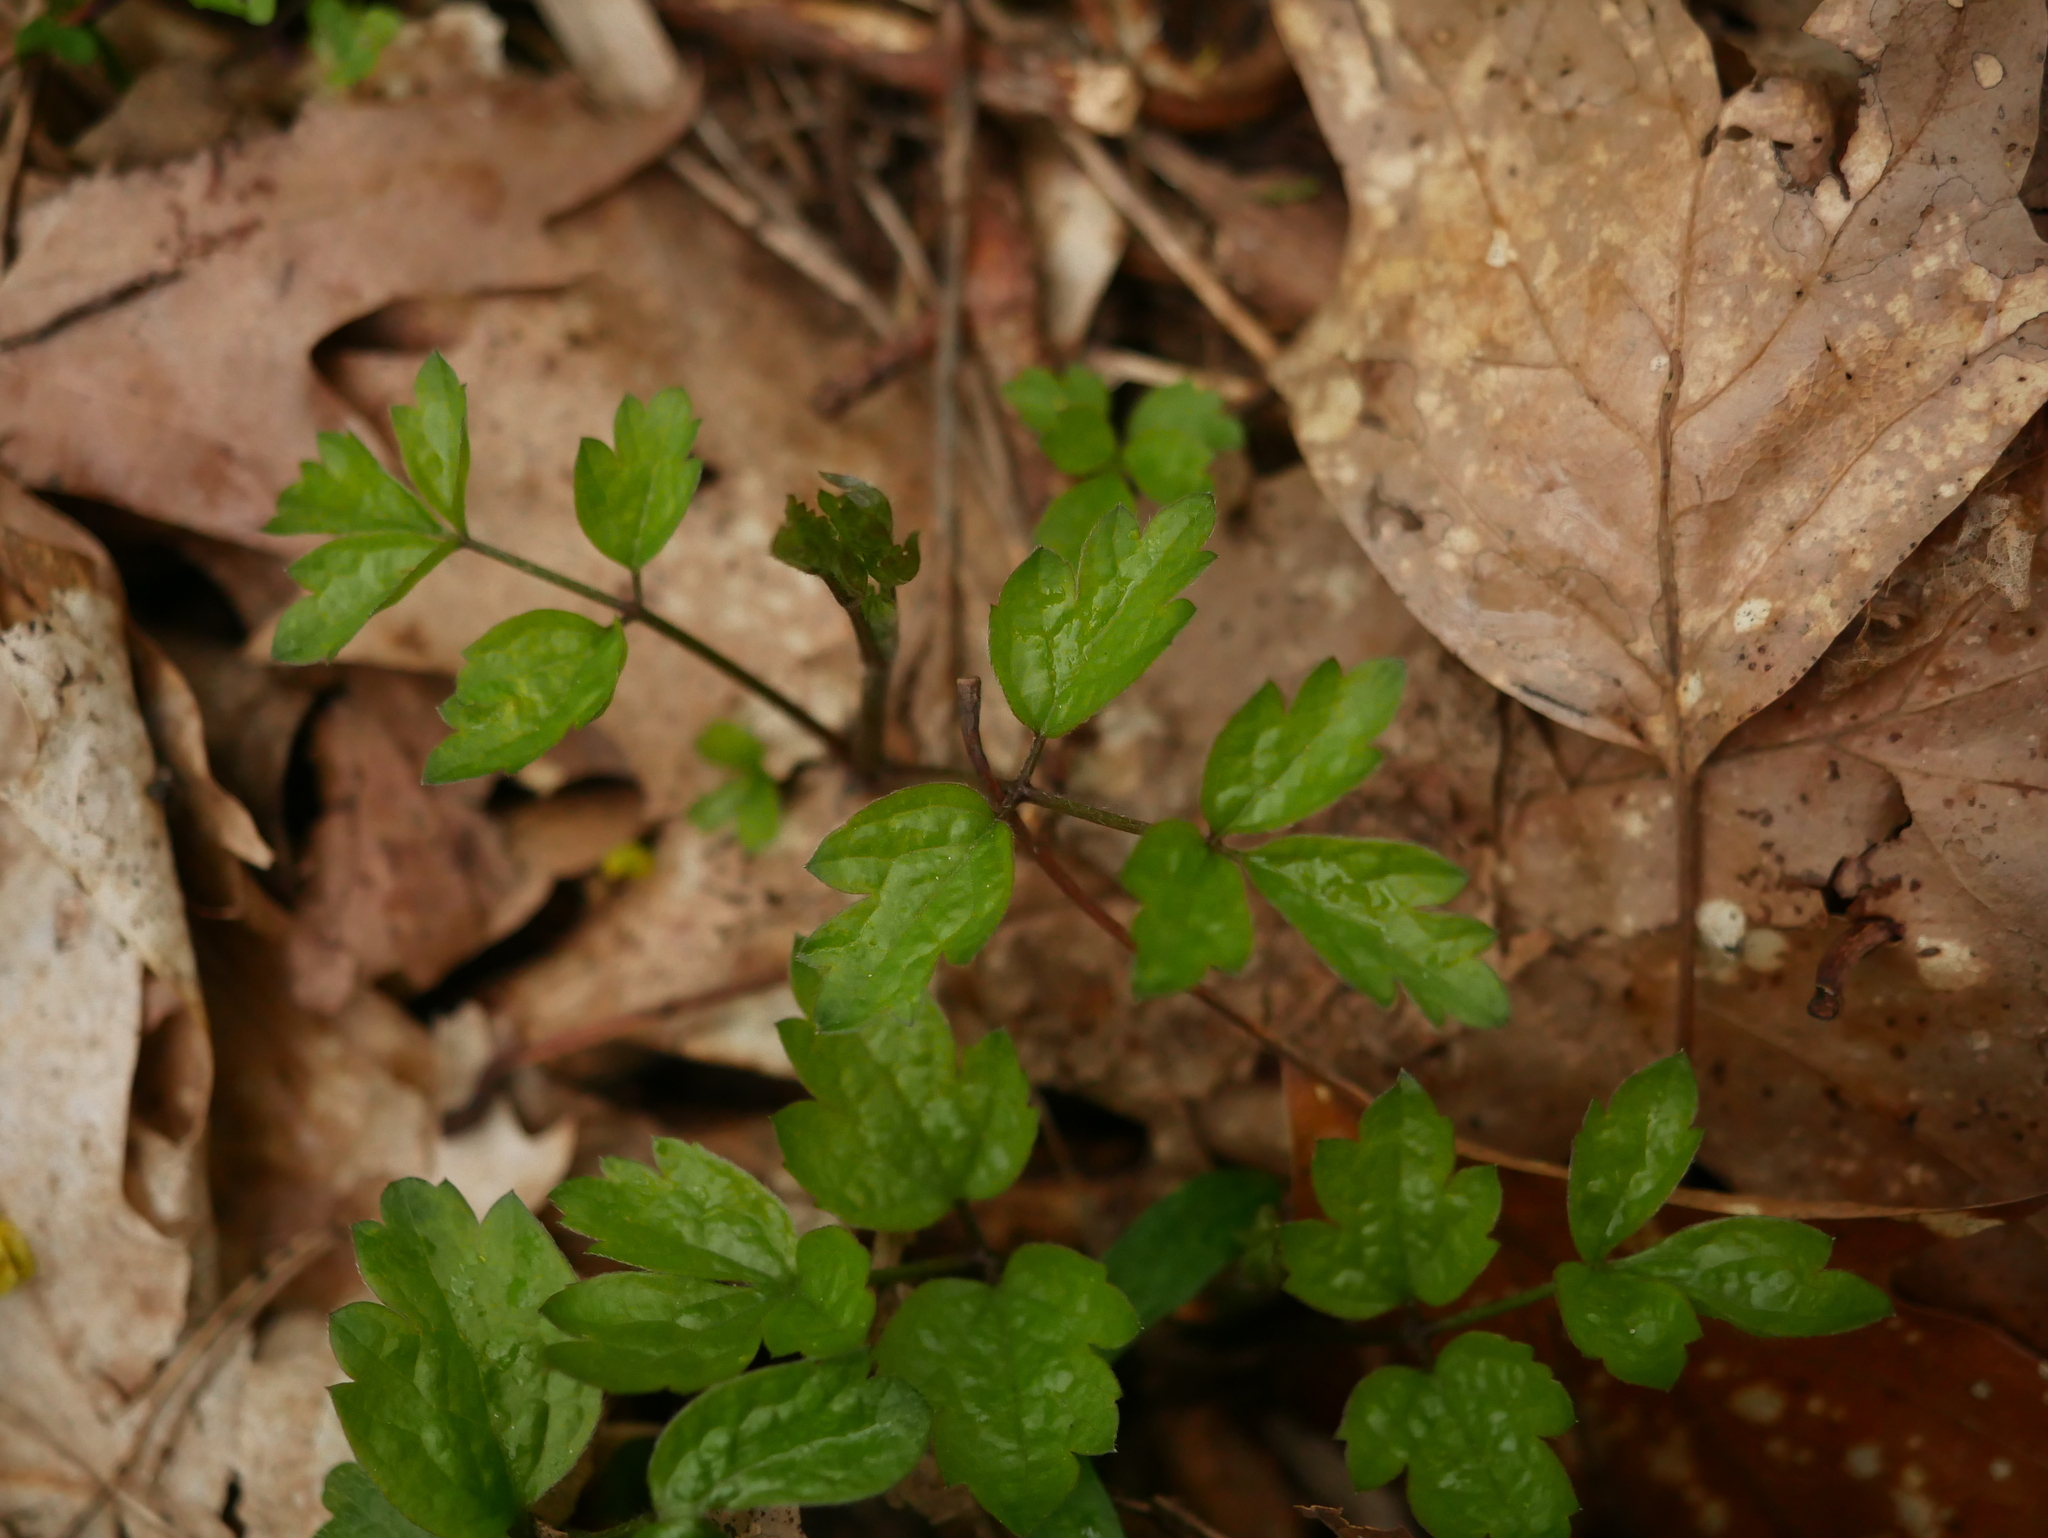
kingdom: Plantae
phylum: Tracheophyta
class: Magnoliopsida
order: Ranunculales
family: Ranunculaceae
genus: Clematis
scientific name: Clematis vitalba
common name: Evergreen clematis
